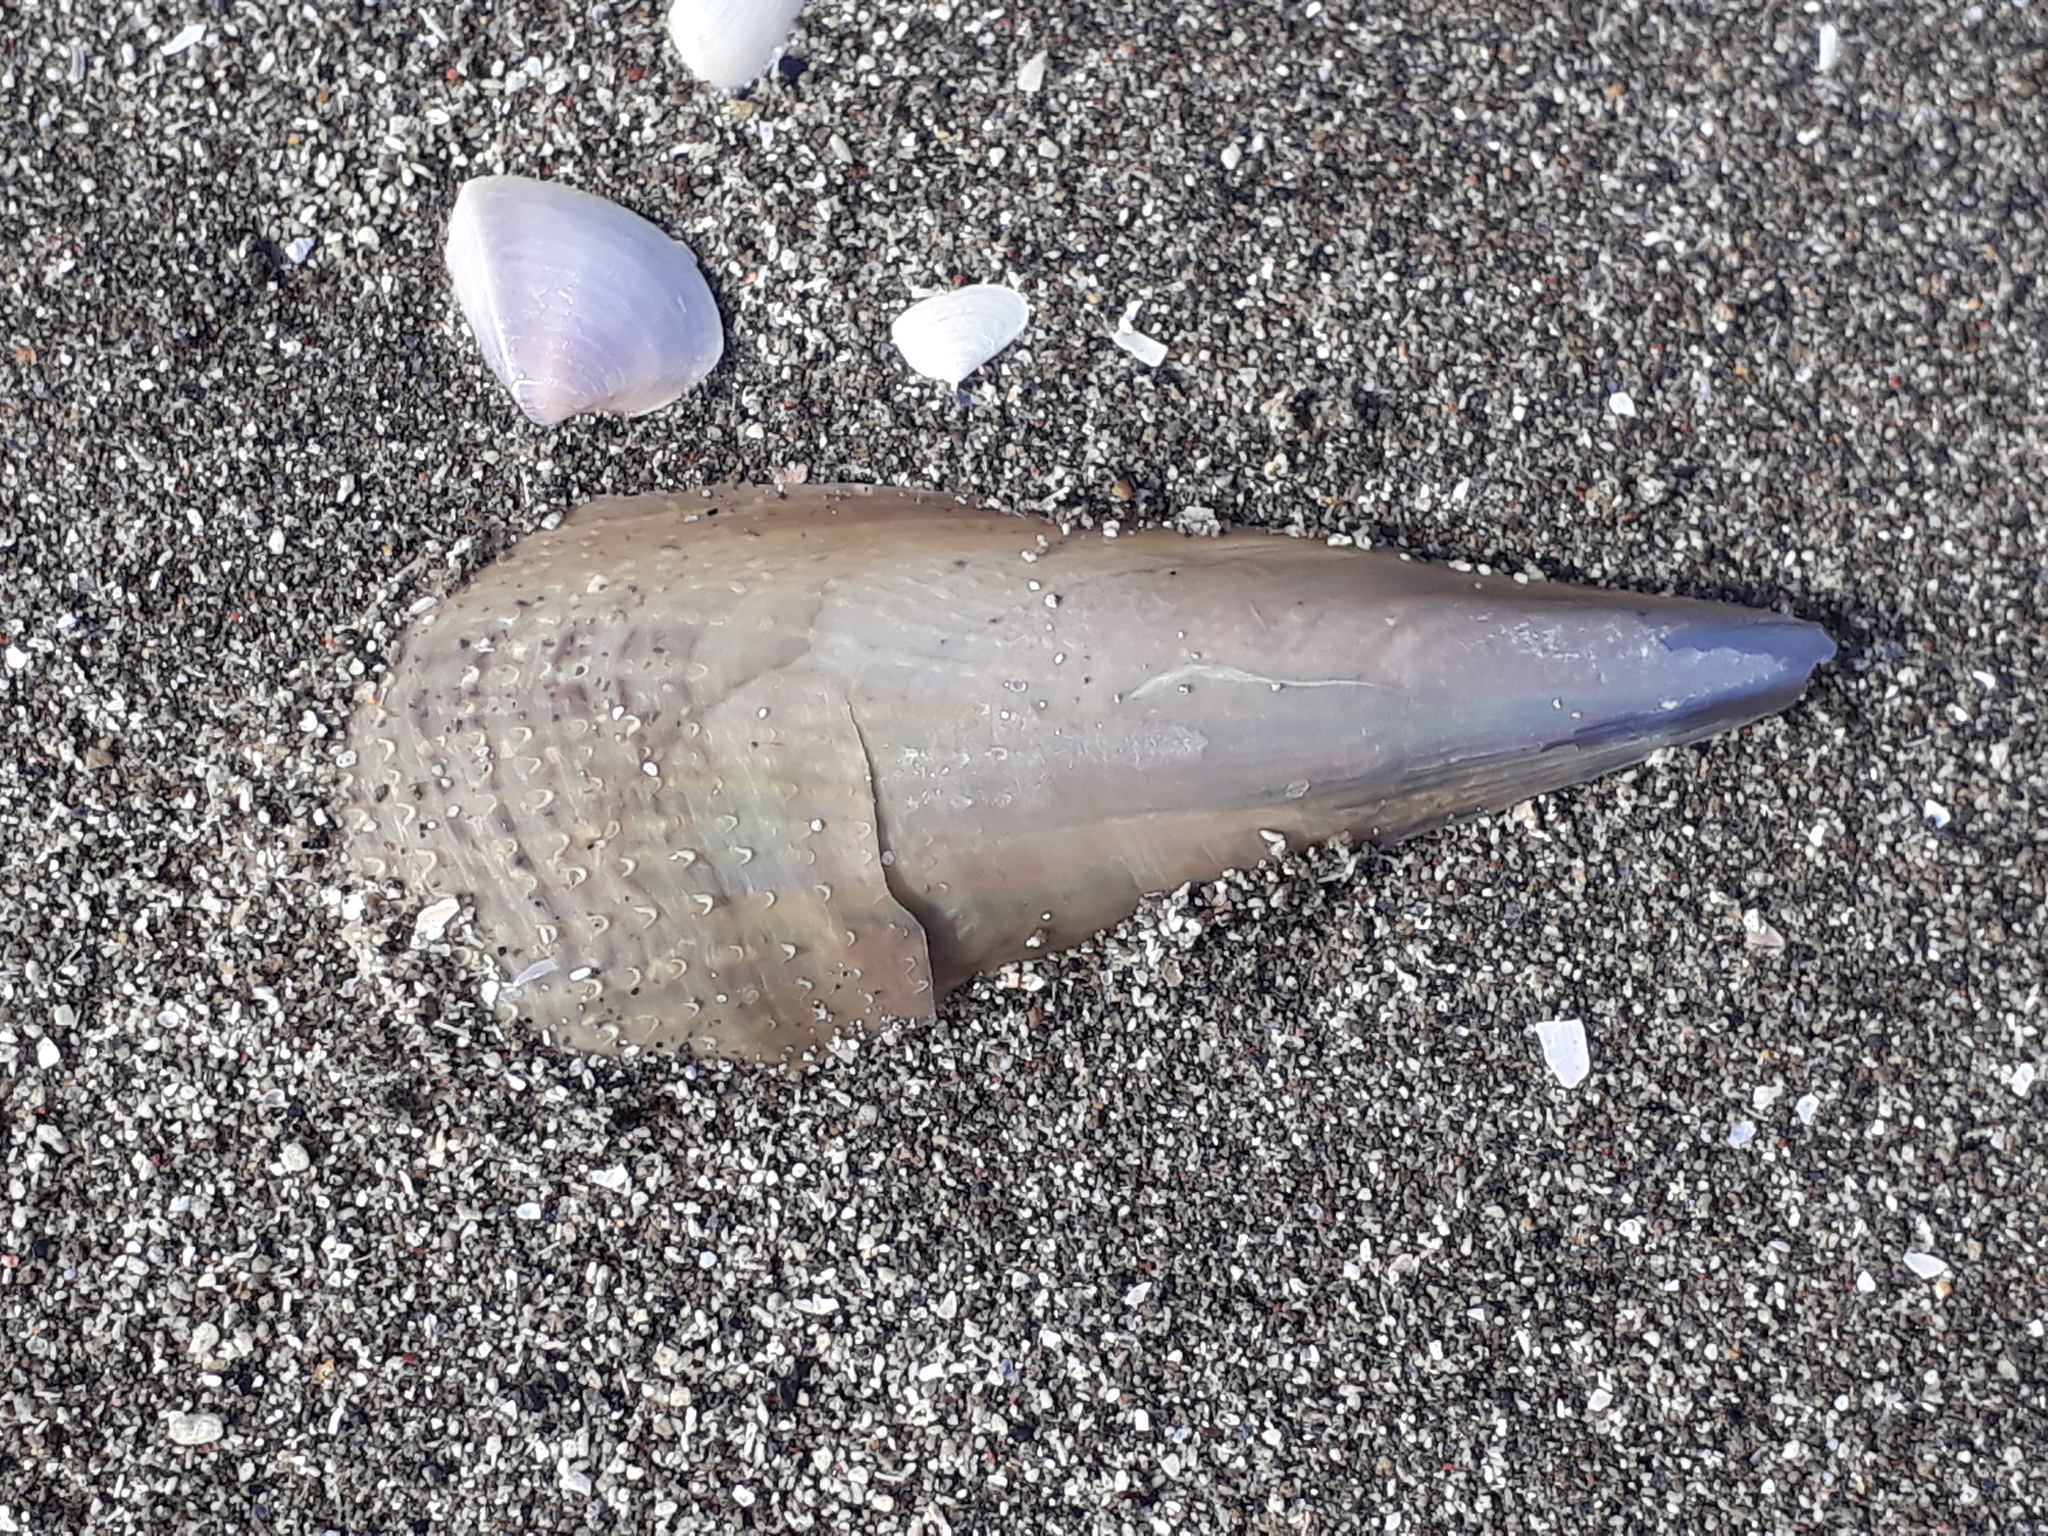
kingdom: Animalia
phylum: Mollusca
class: Bivalvia
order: Ostreida
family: Pinnidae
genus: Atrina
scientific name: Atrina zelandica
